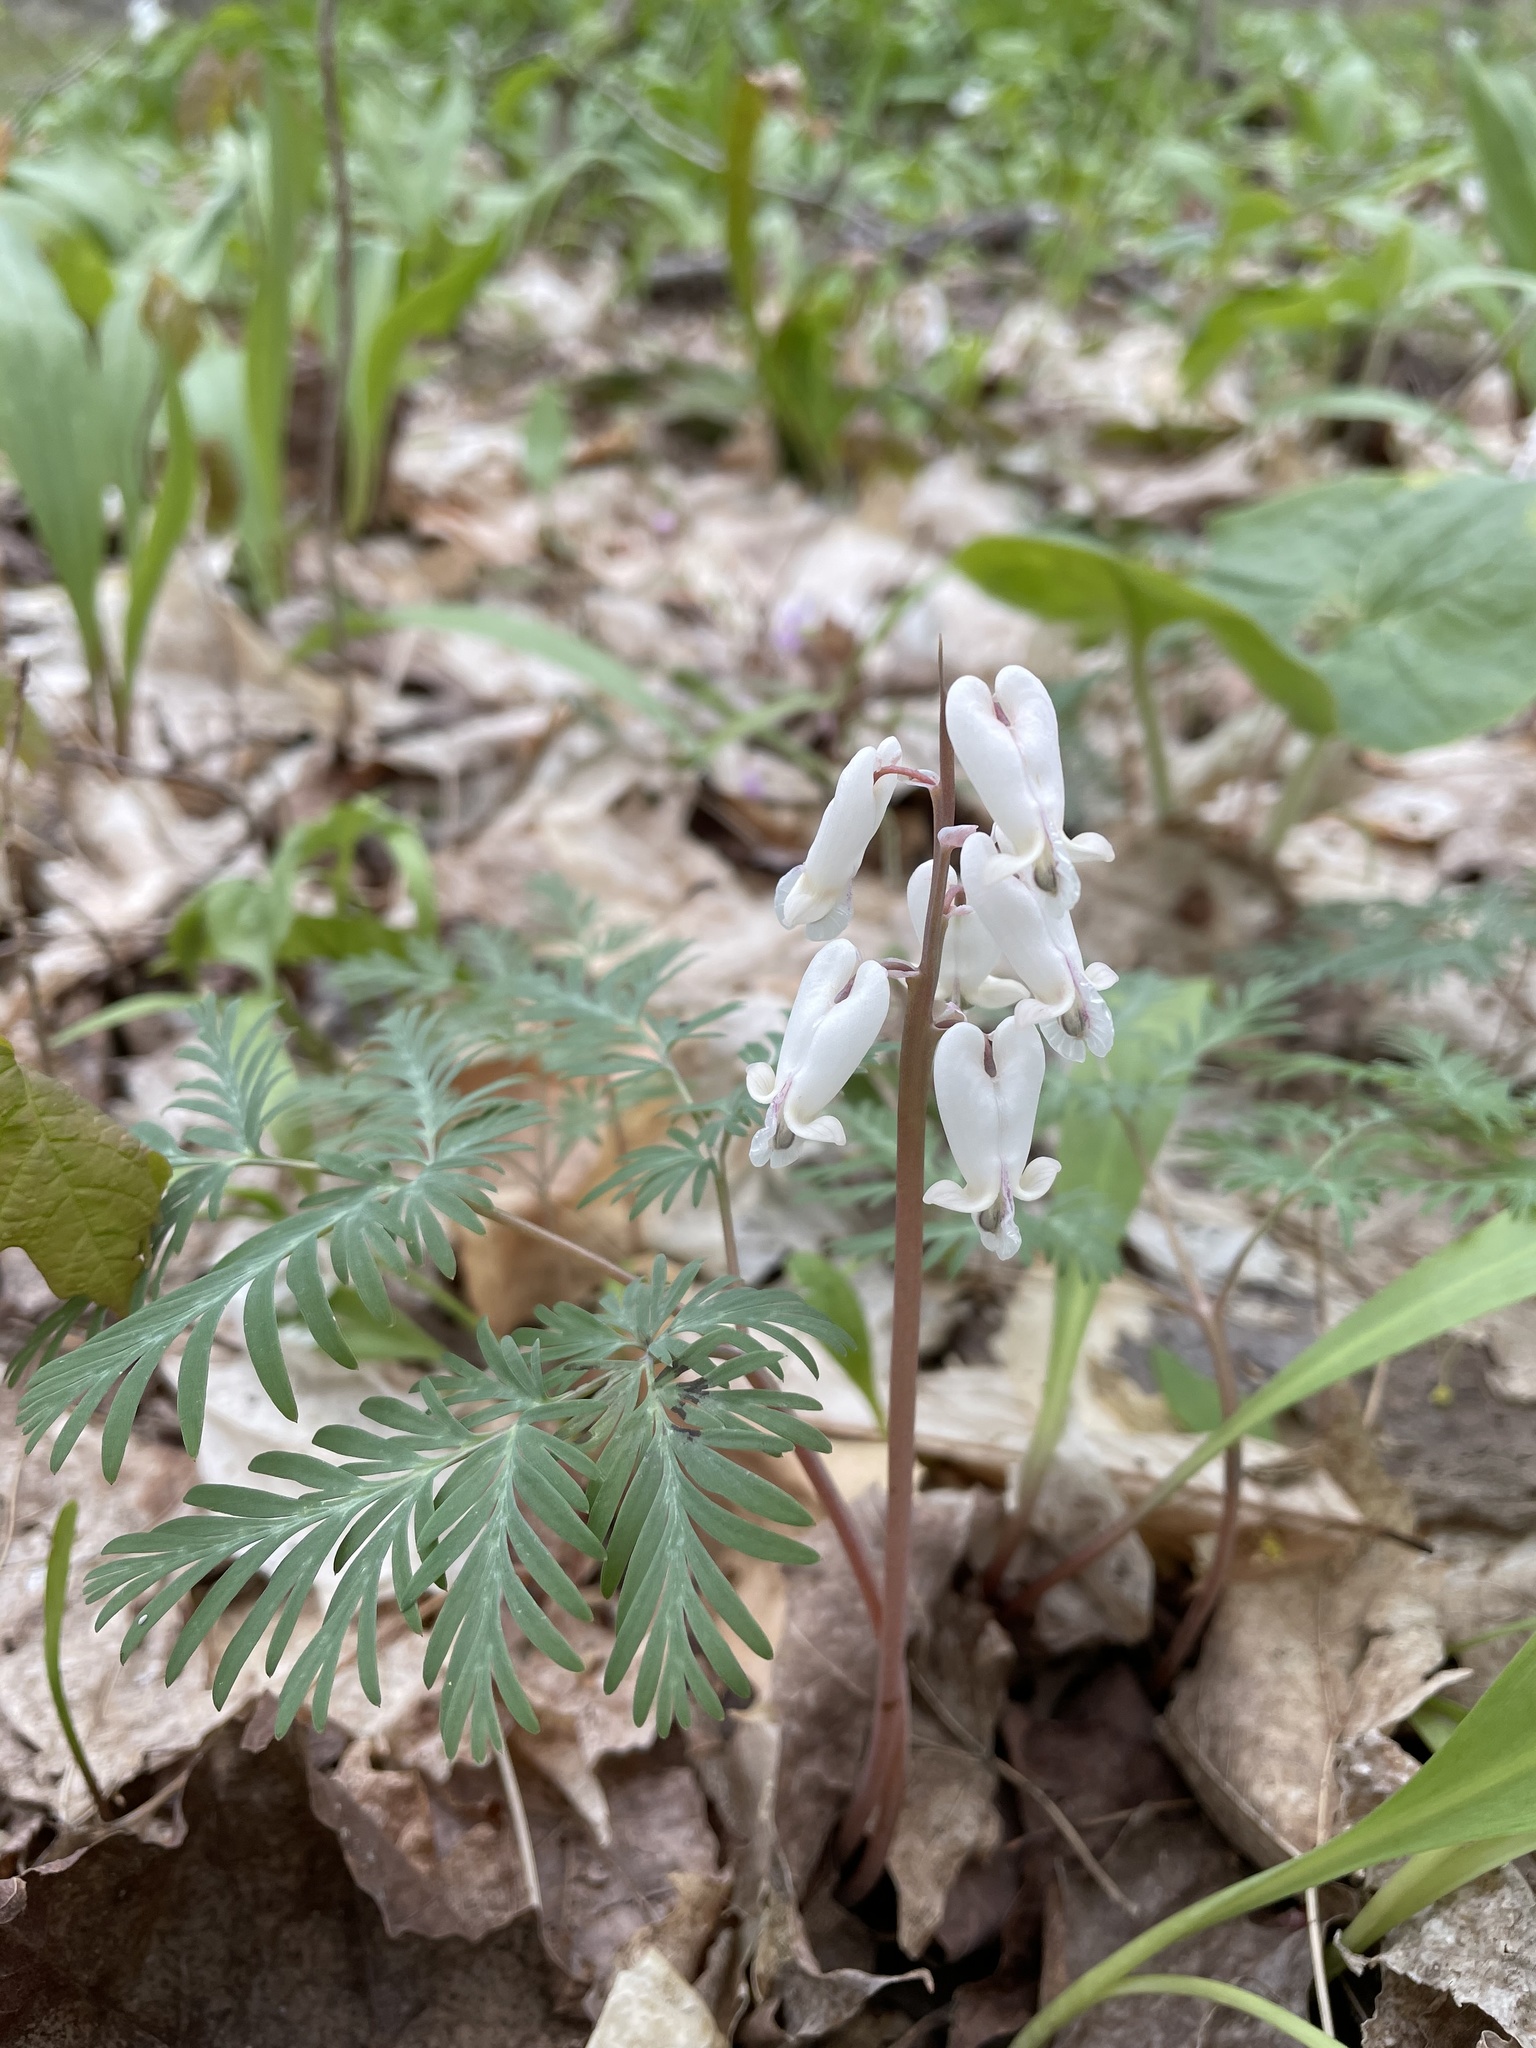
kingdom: Plantae
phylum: Tracheophyta
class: Magnoliopsida
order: Ranunculales
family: Papaveraceae
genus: Dicentra
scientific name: Dicentra canadensis
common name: Squirrel-corn
